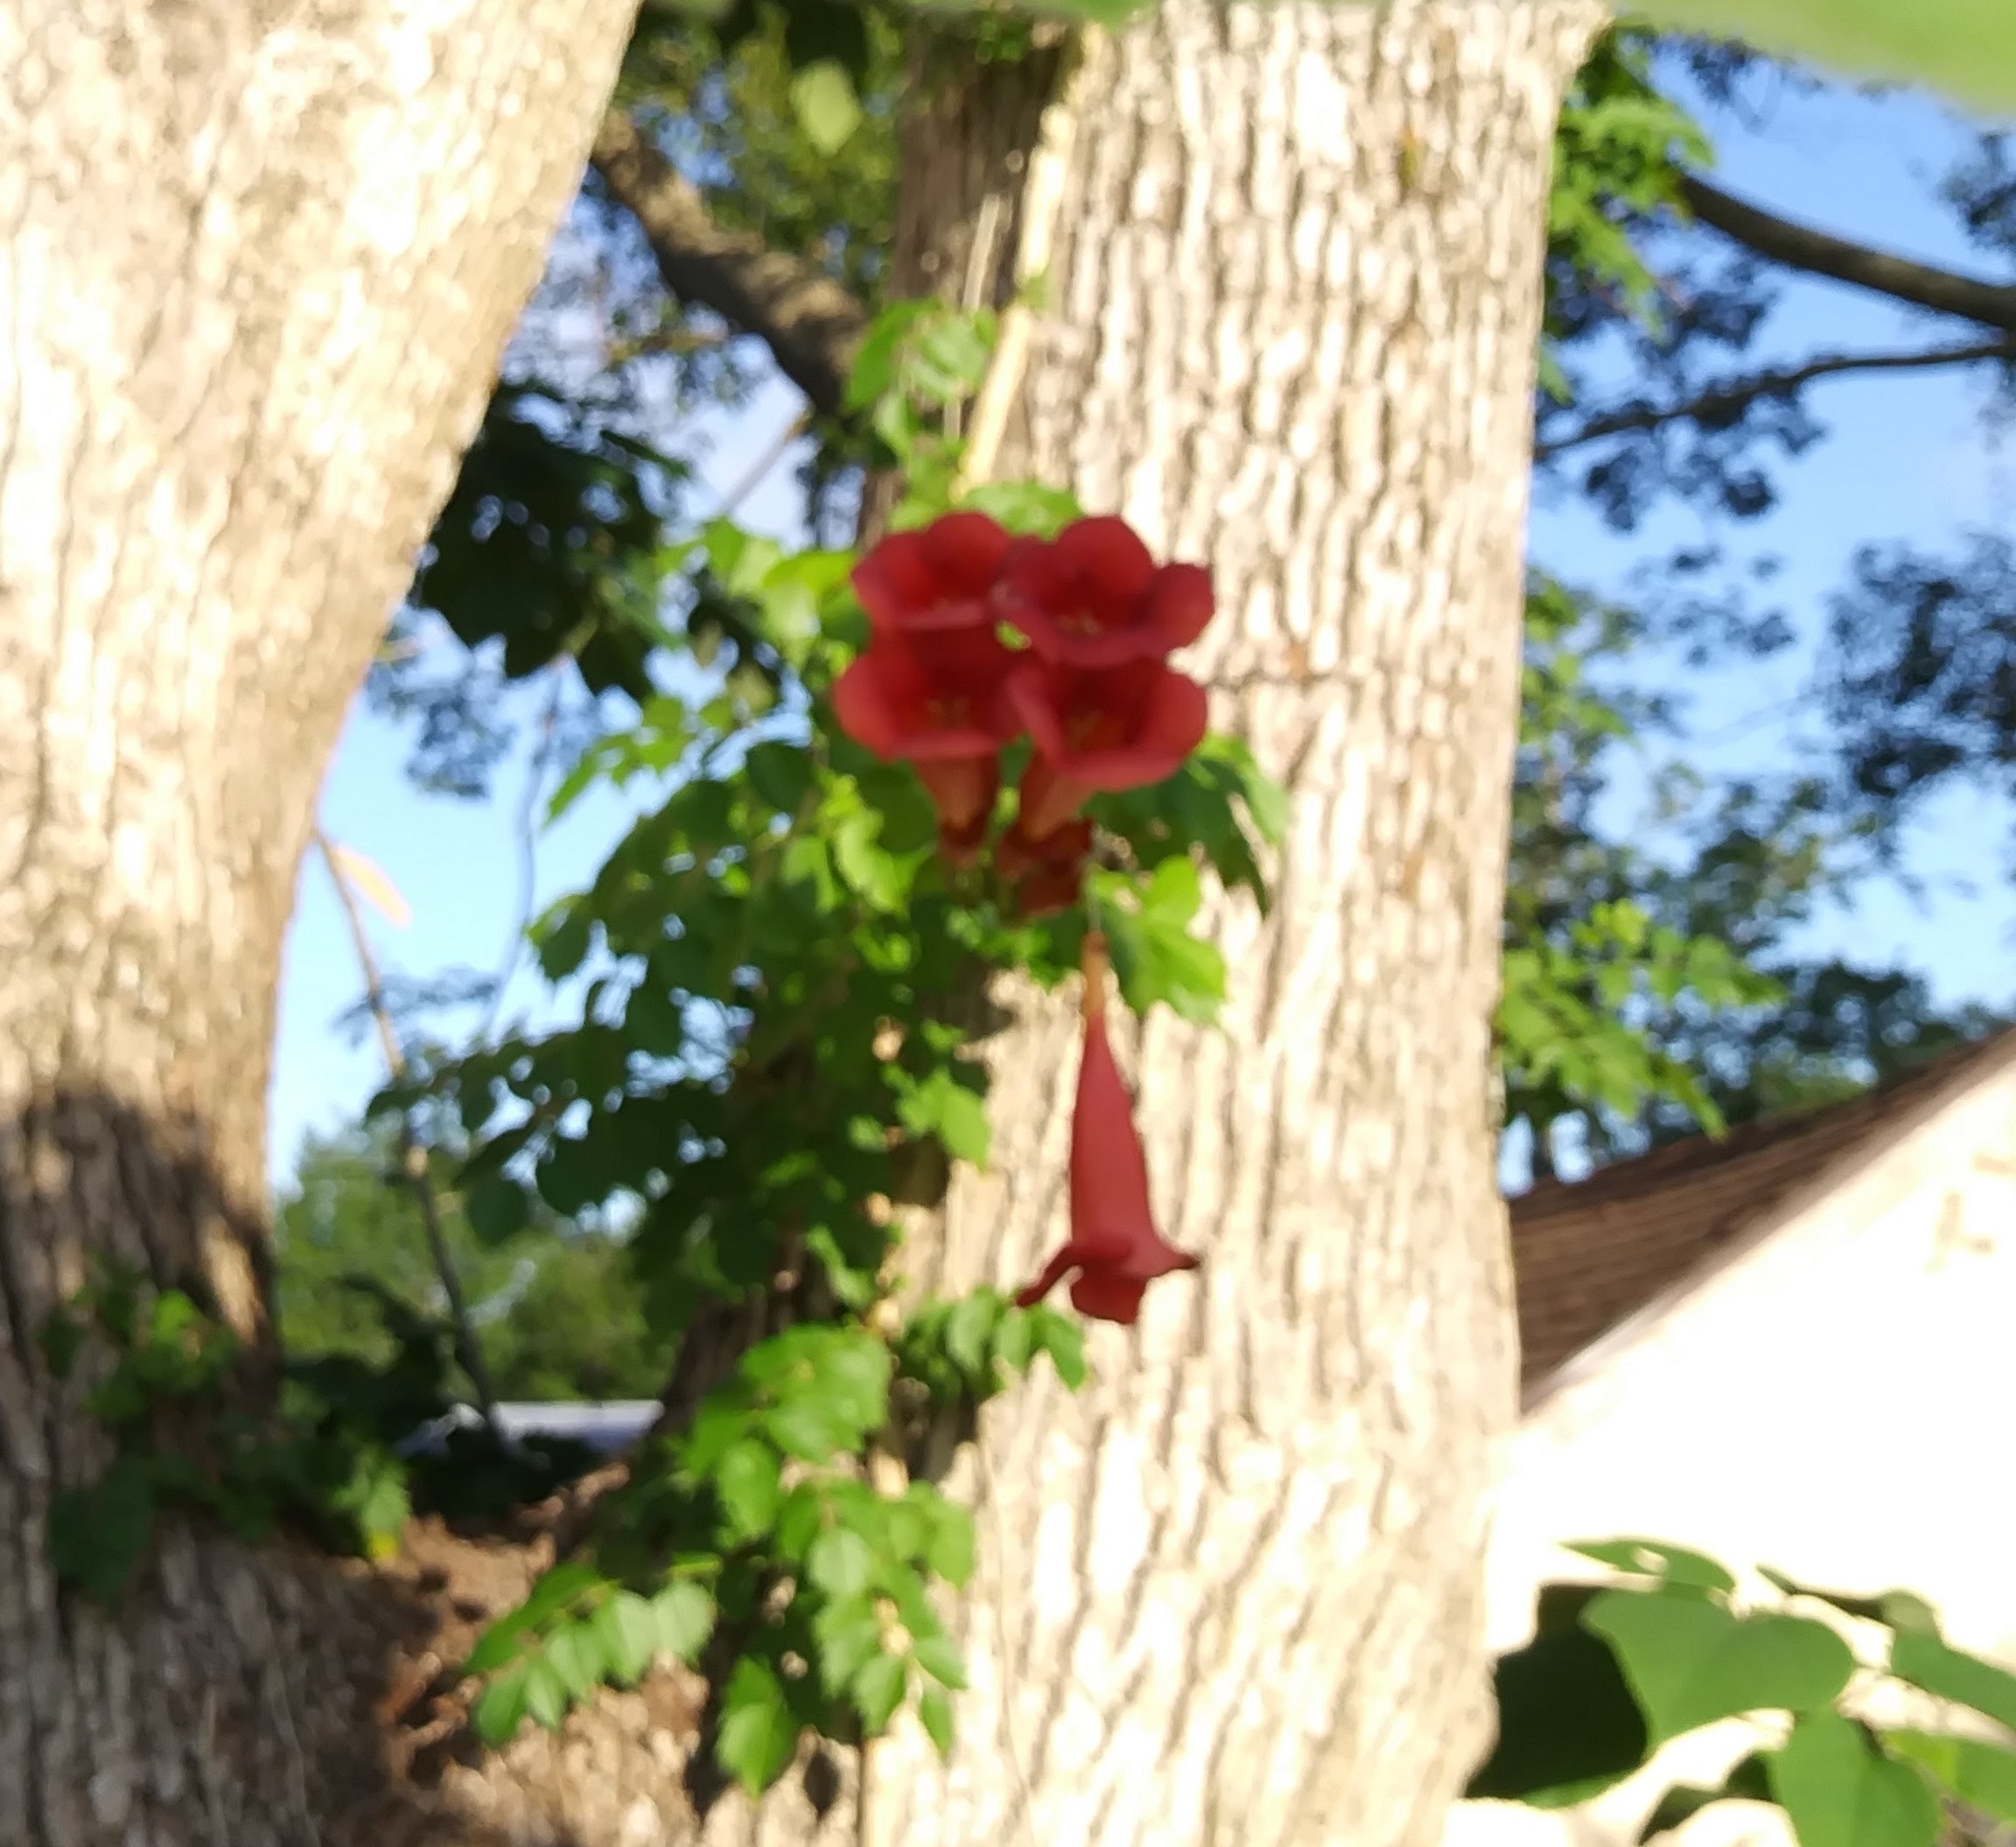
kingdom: Plantae
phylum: Tracheophyta
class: Magnoliopsida
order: Lamiales
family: Bignoniaceae
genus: Campsis
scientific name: Campsis radicans
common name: Trumpet-creeper
